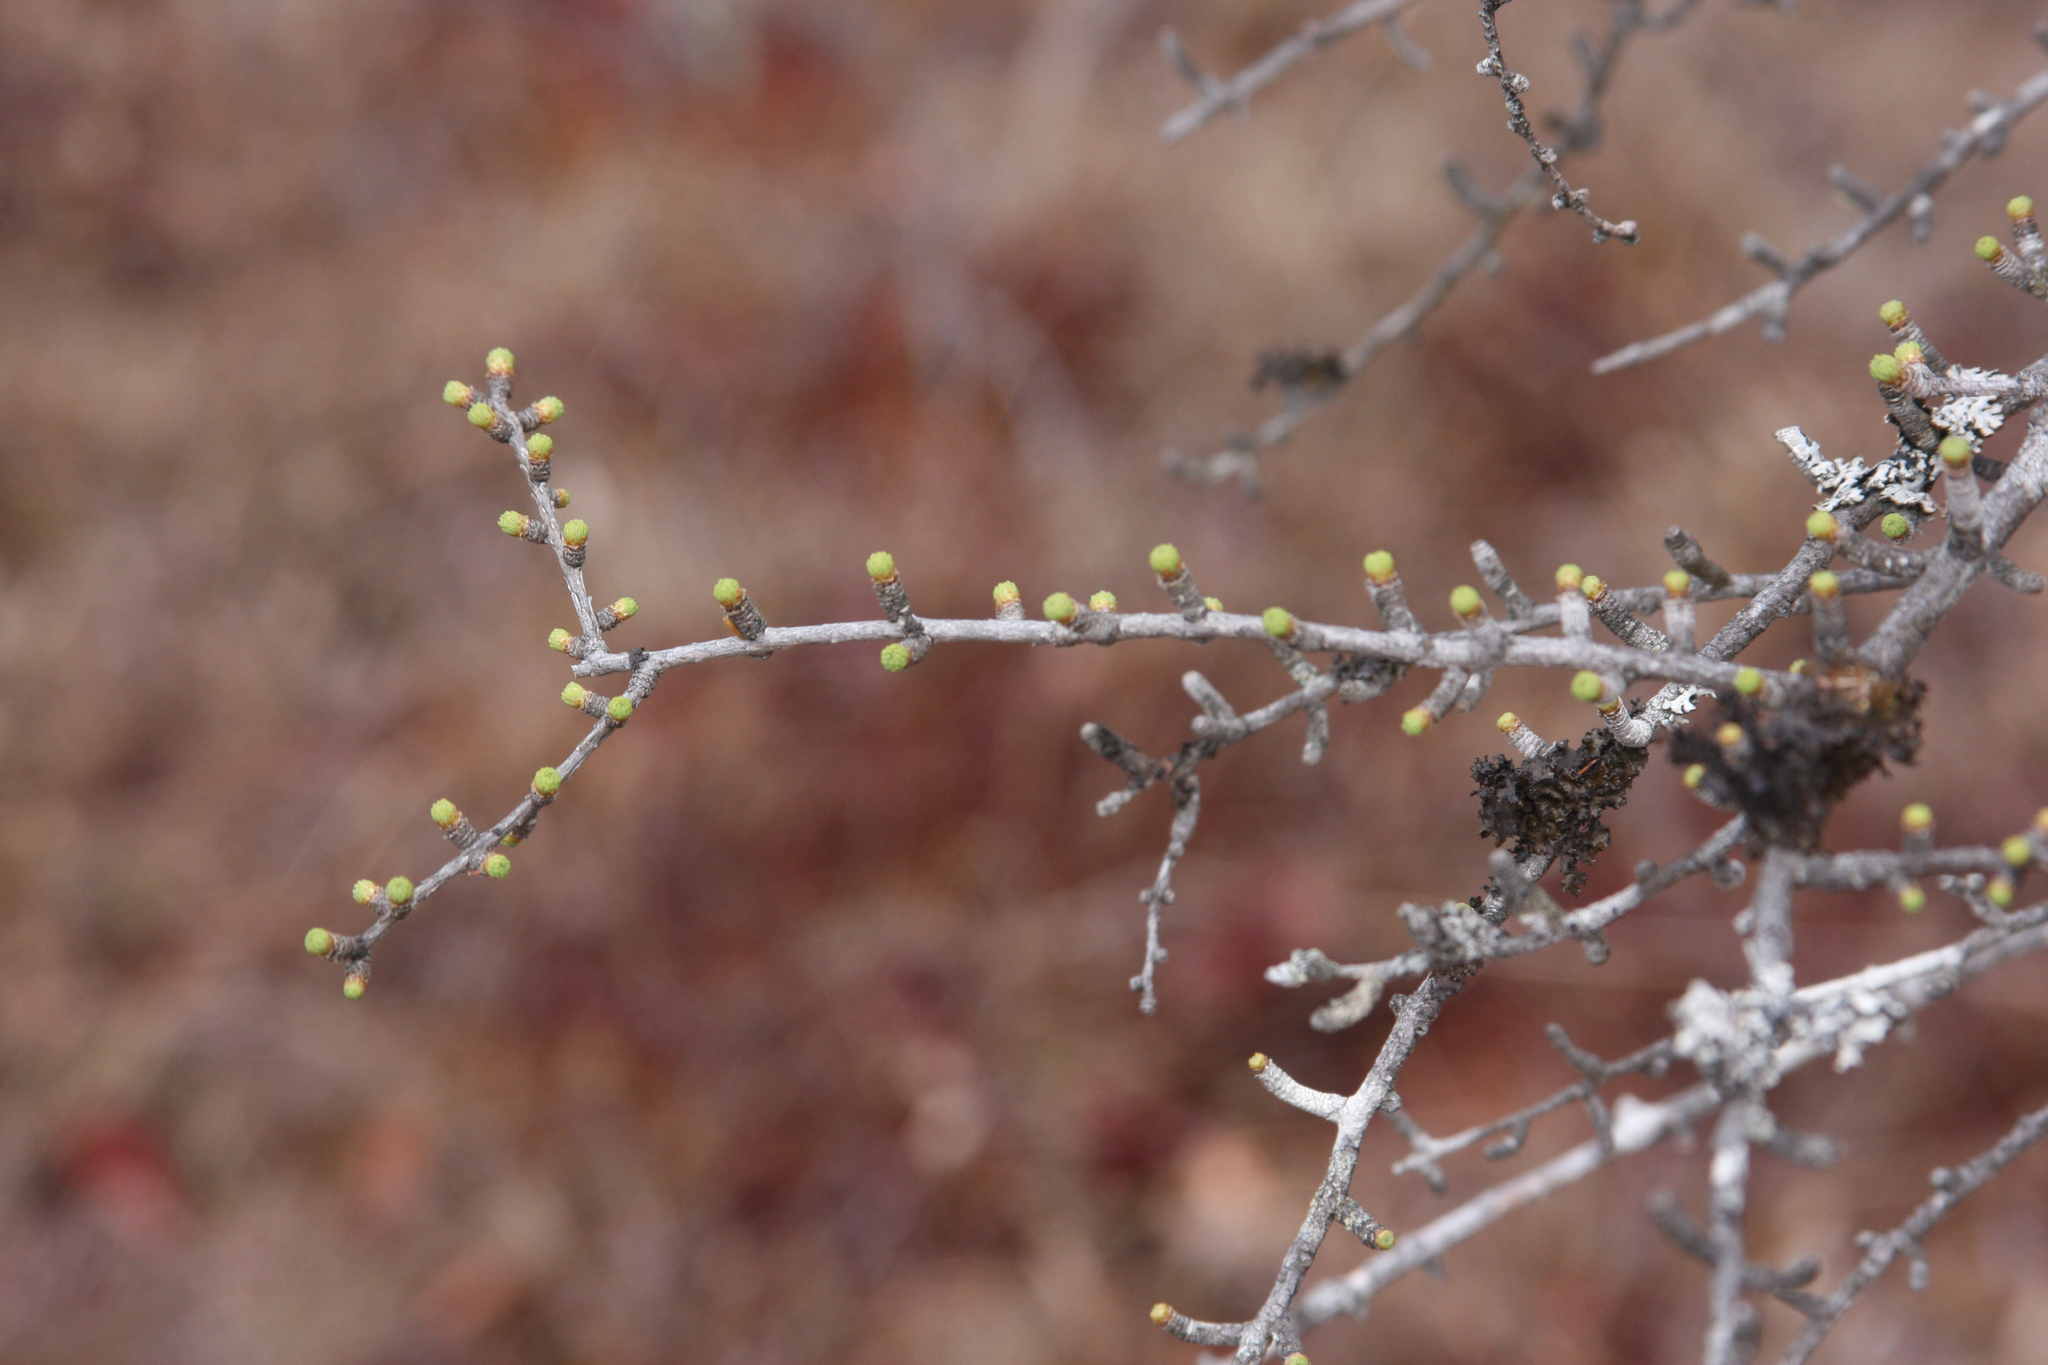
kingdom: Plantae
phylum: Tracheophyta
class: Pinopsida
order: Pinales
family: Pinaceae
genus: Larix
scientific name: Larix laricina
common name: American larch
